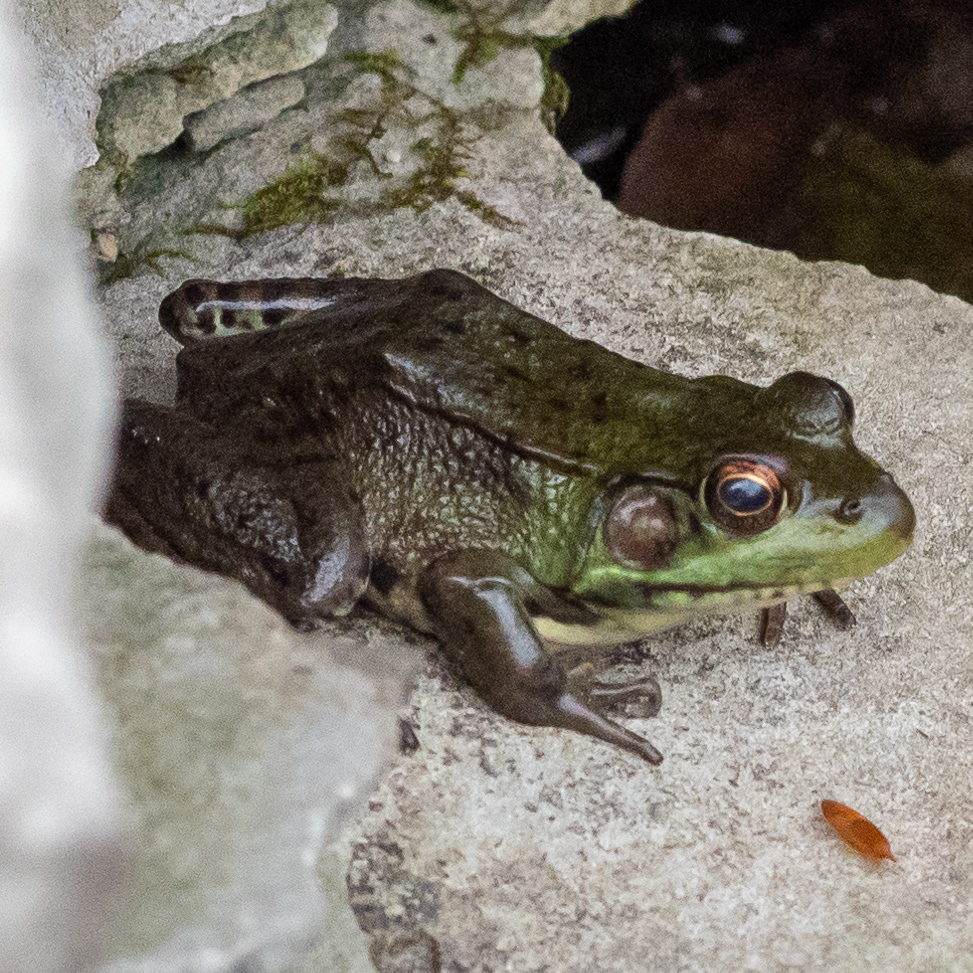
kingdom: Animalia
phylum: Chordata
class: Amphibia
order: Anura
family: Ranidae
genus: Lithobates
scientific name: Lithobates clamitans
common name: Green frog
